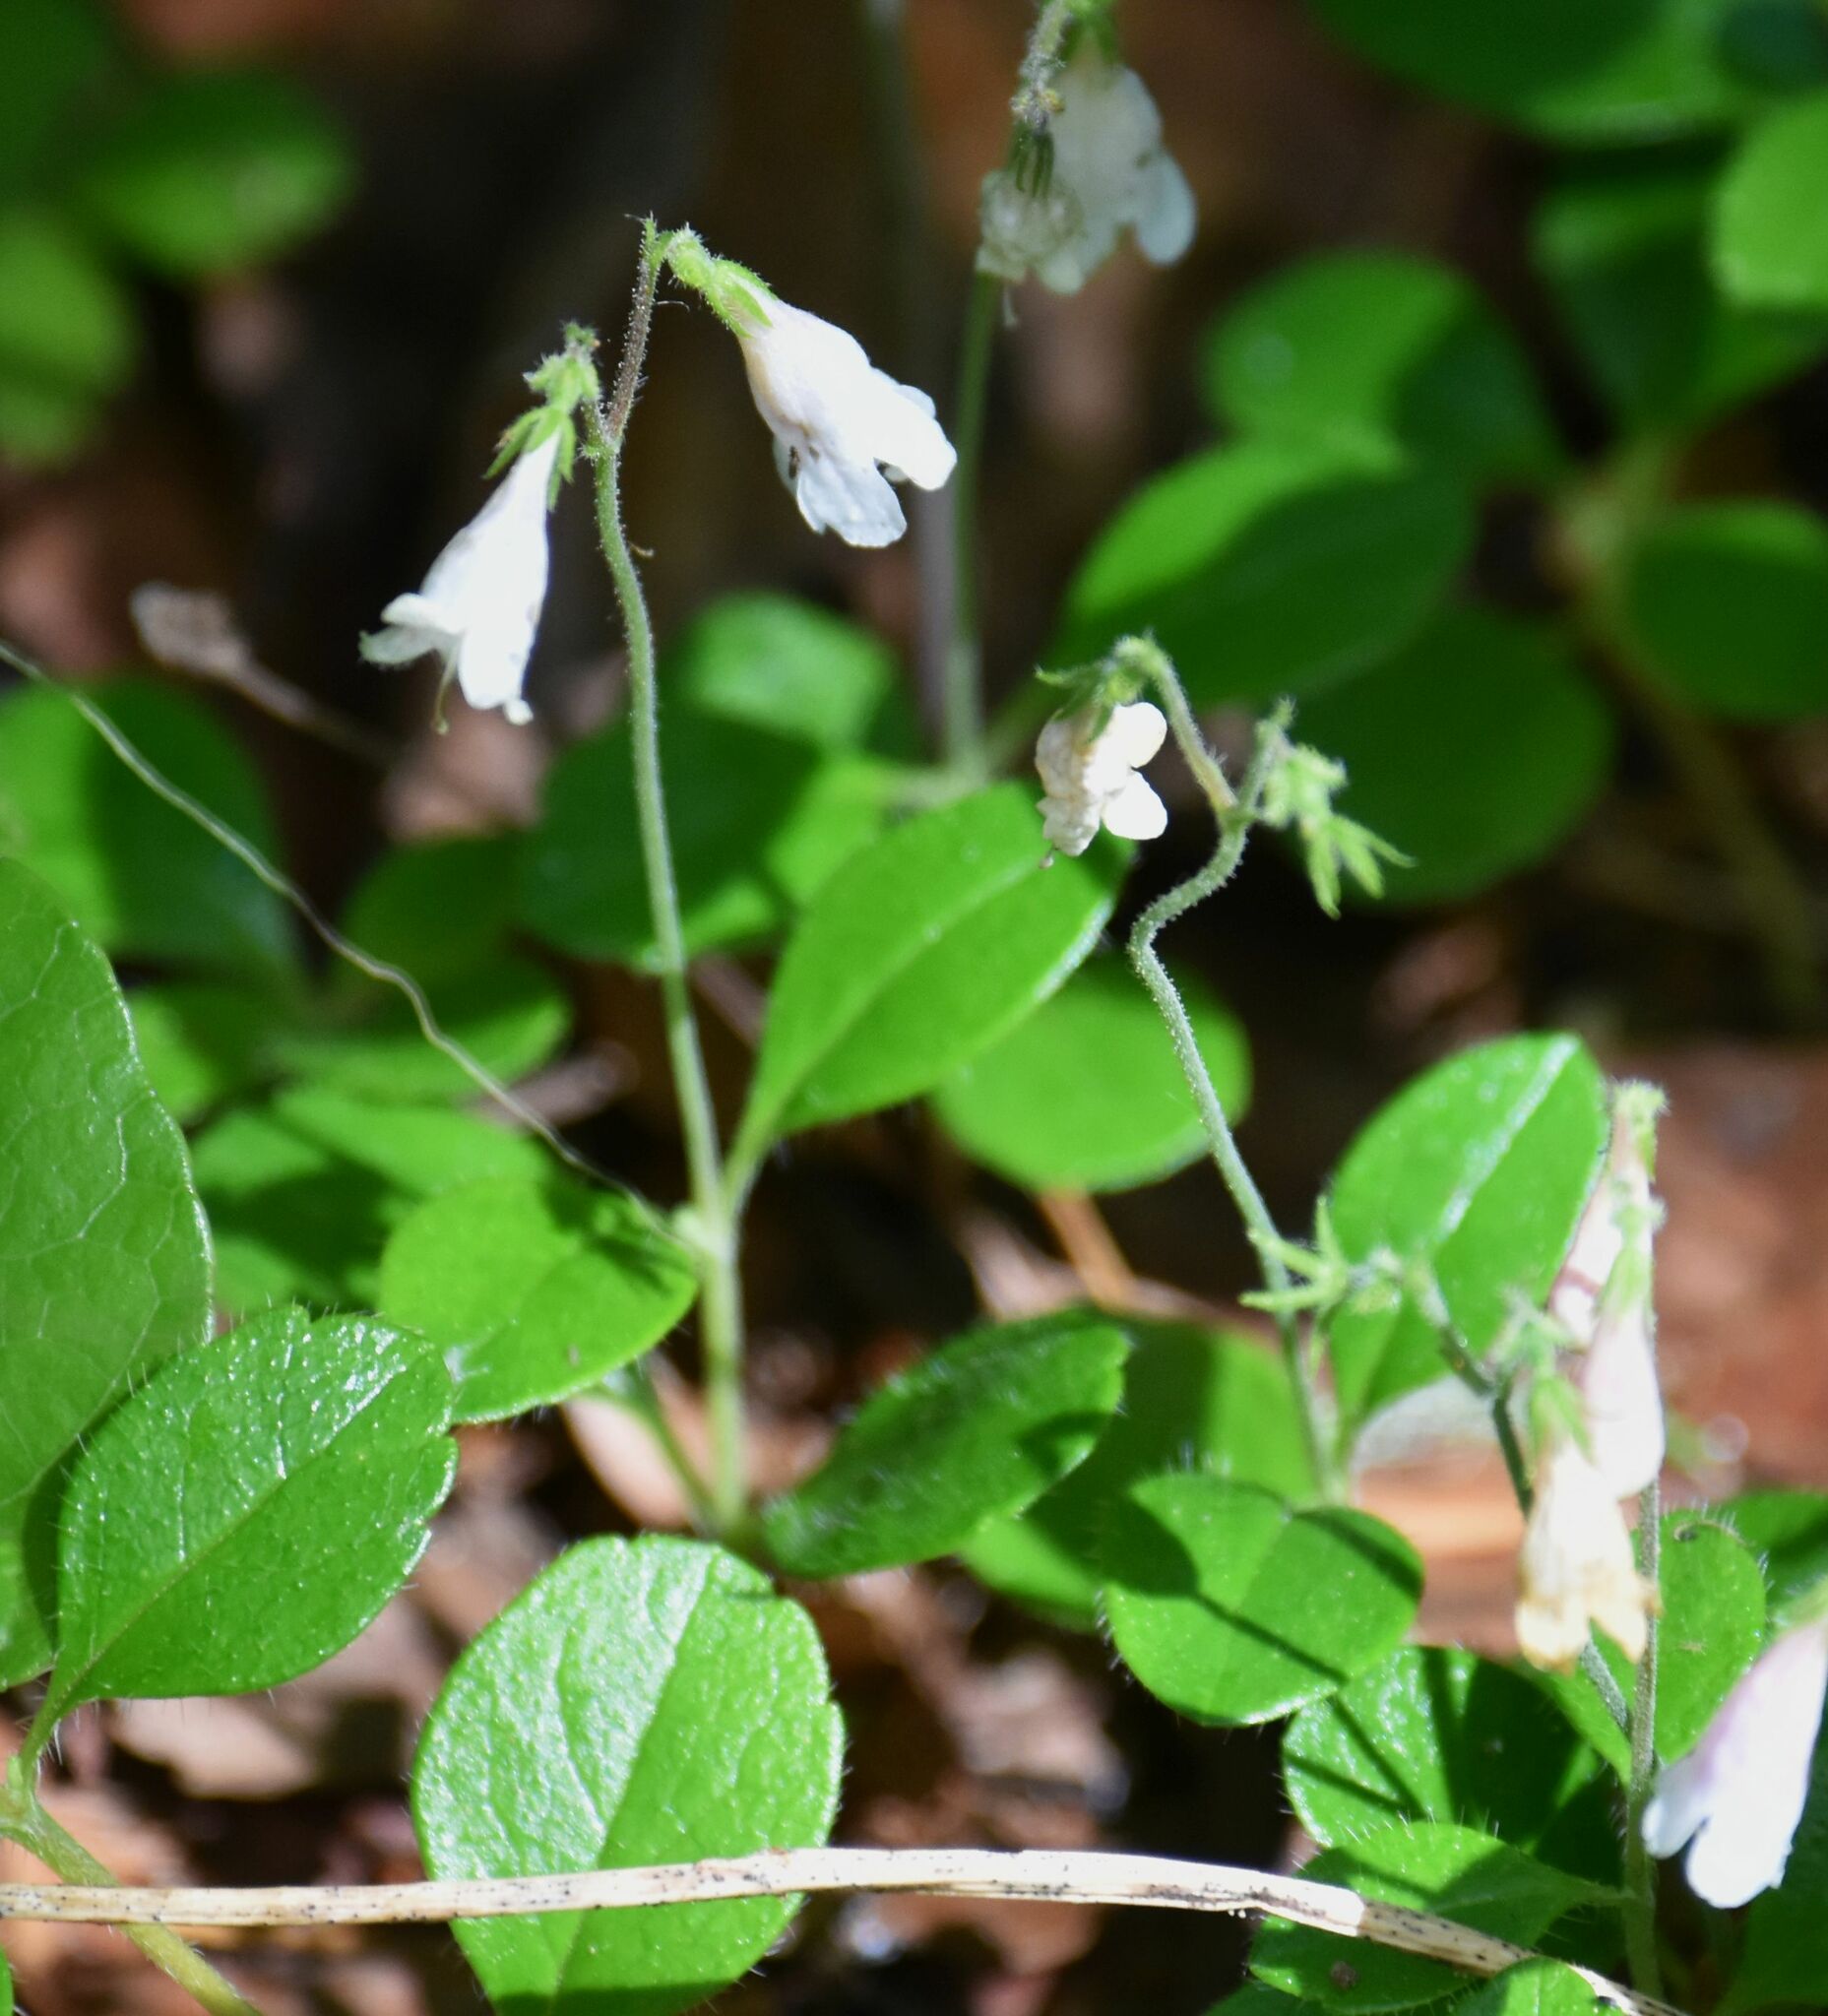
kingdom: Plantae
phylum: Tracheophyta
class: Magnoliopsida
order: Dipsacales
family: Caprifoliaceae
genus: Linnaea
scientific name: Linnaea borealis
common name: Twinflower
